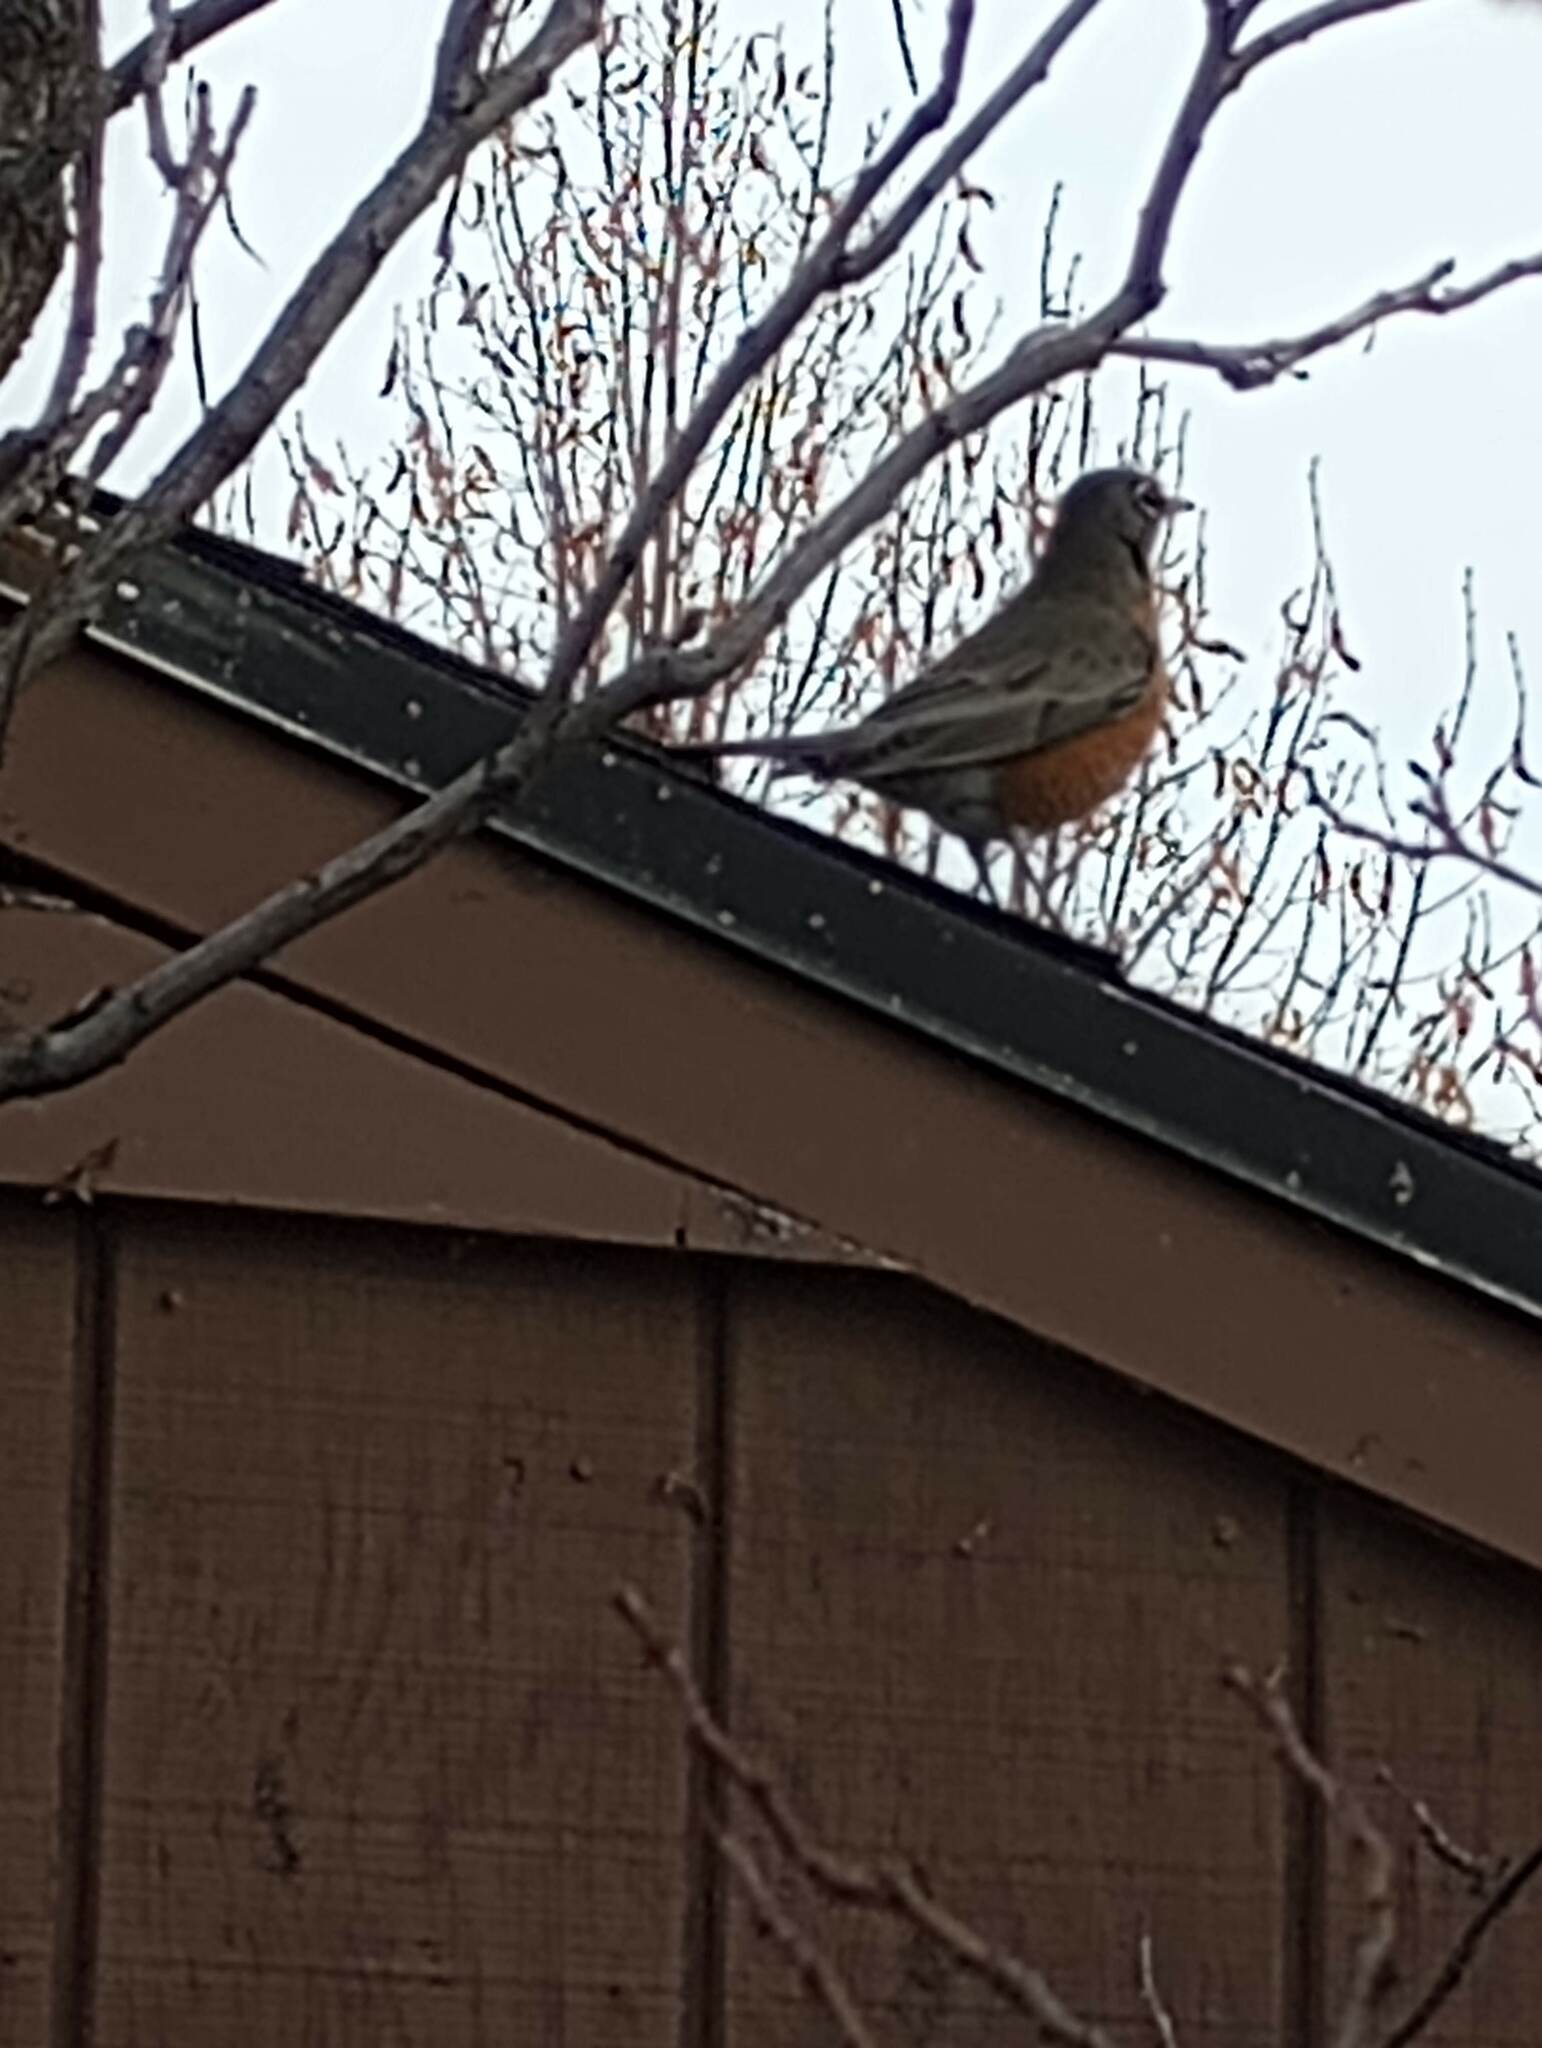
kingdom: Animalia
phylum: Chordata
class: Aves
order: Passeriformes
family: Turdidae
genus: Turdus
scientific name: Turdus migratorius
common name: American robin
